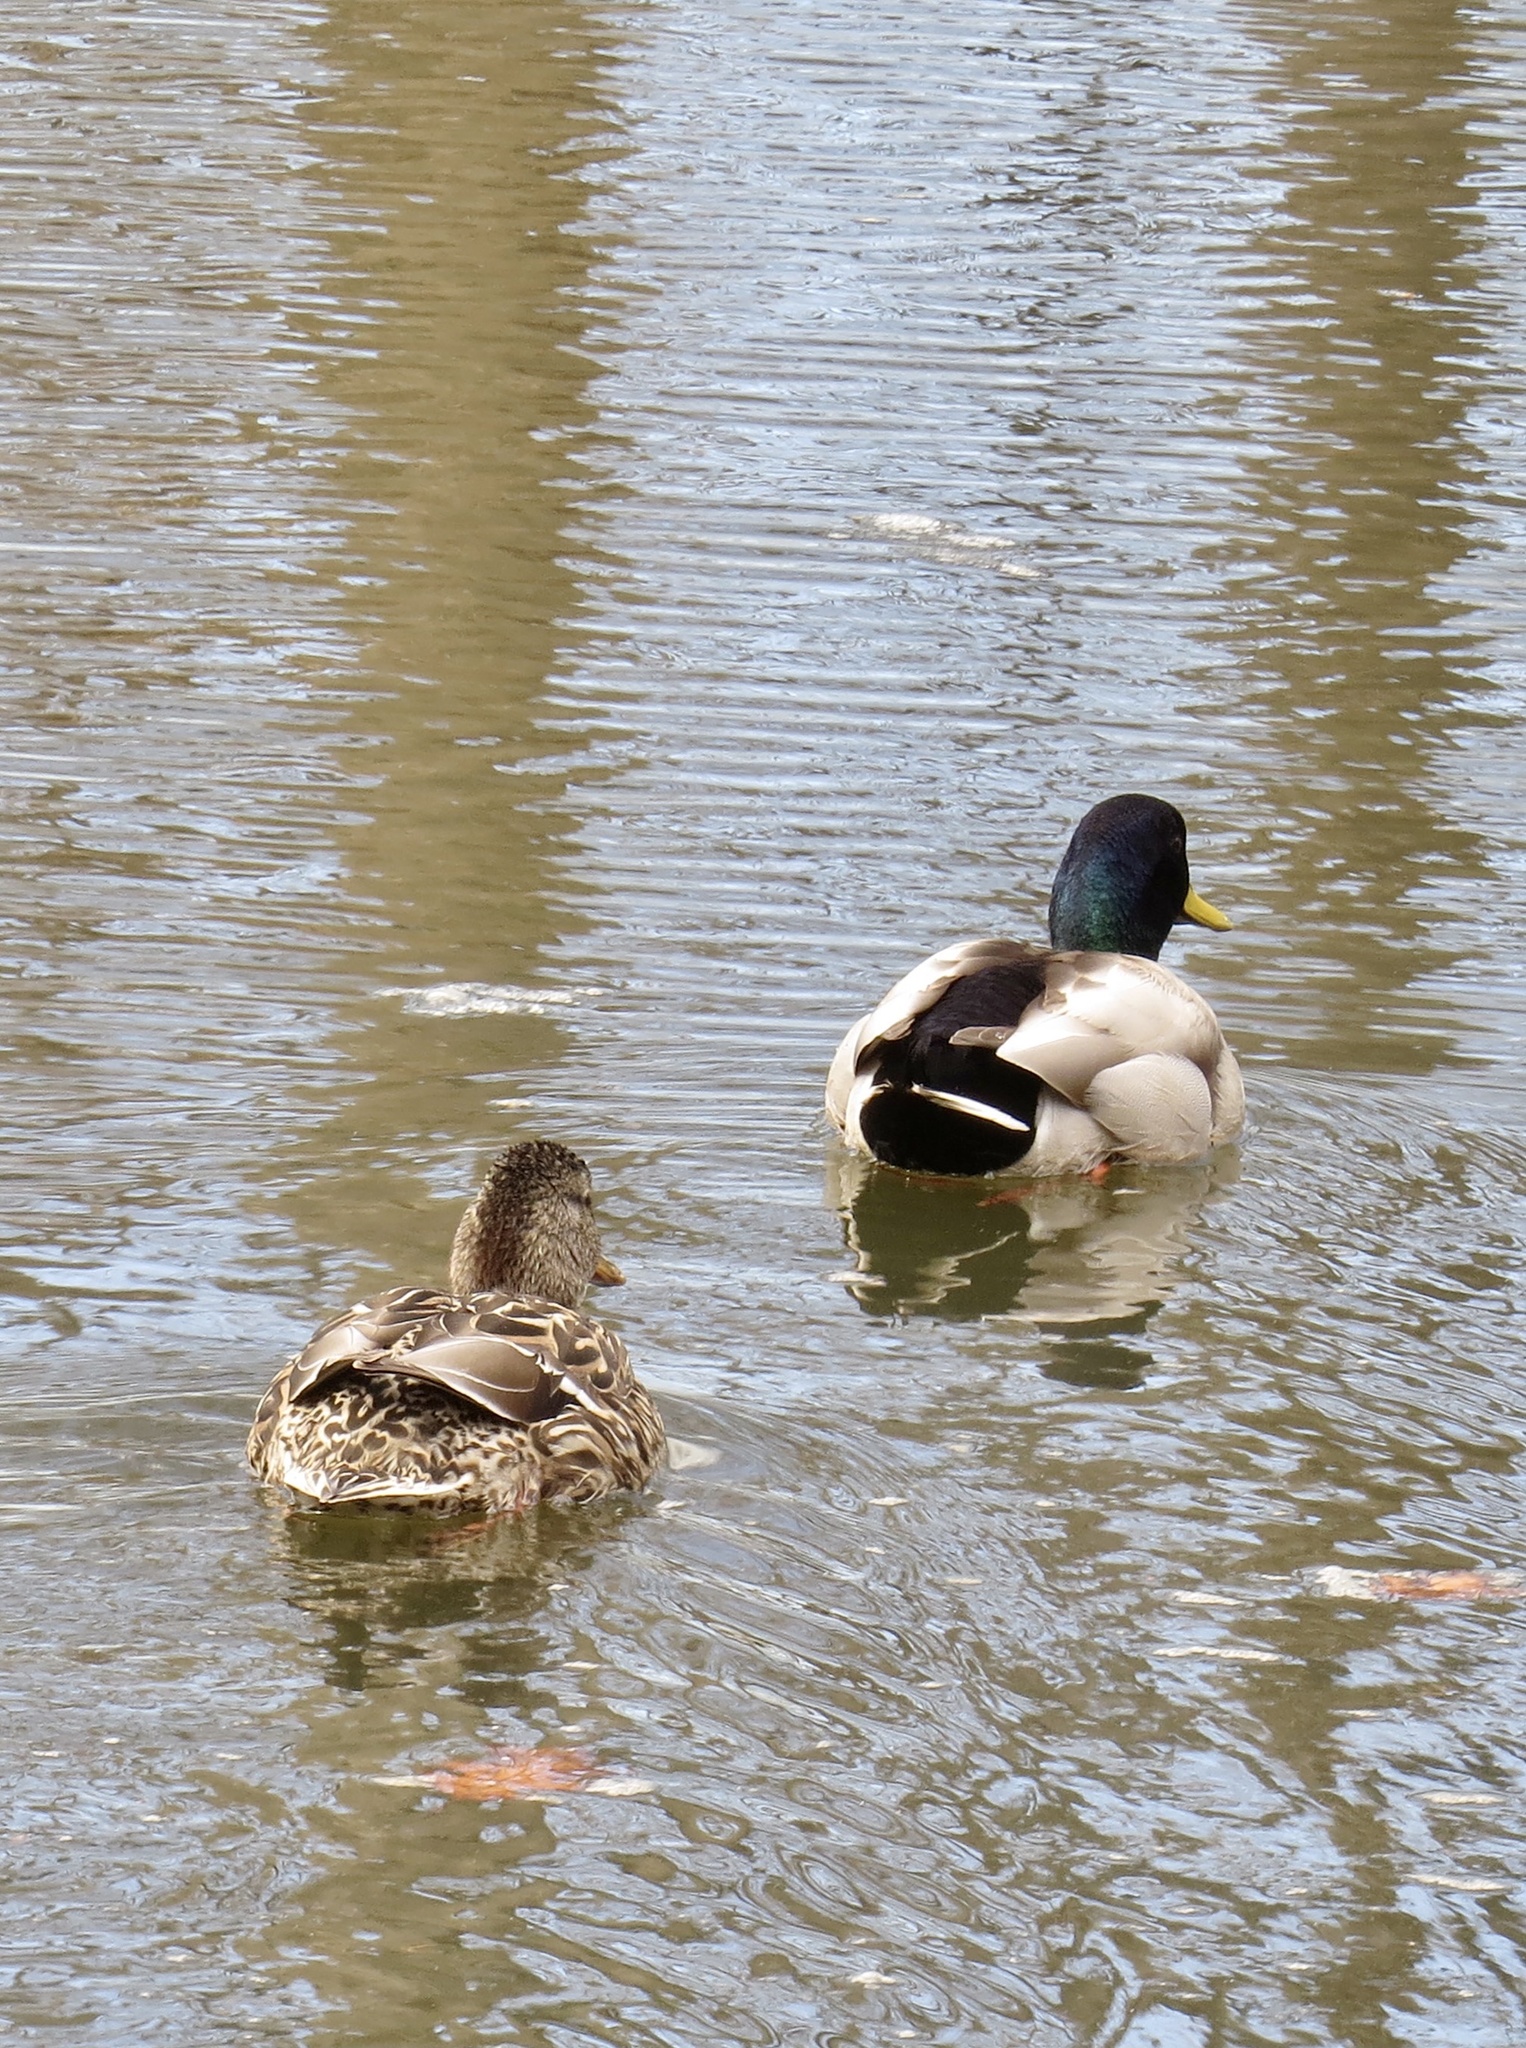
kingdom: Animalia
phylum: Chordata
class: Aves
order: Anseriformes
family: Anatidae
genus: Anas
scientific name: Anas platyrhynchos
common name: Mallard
